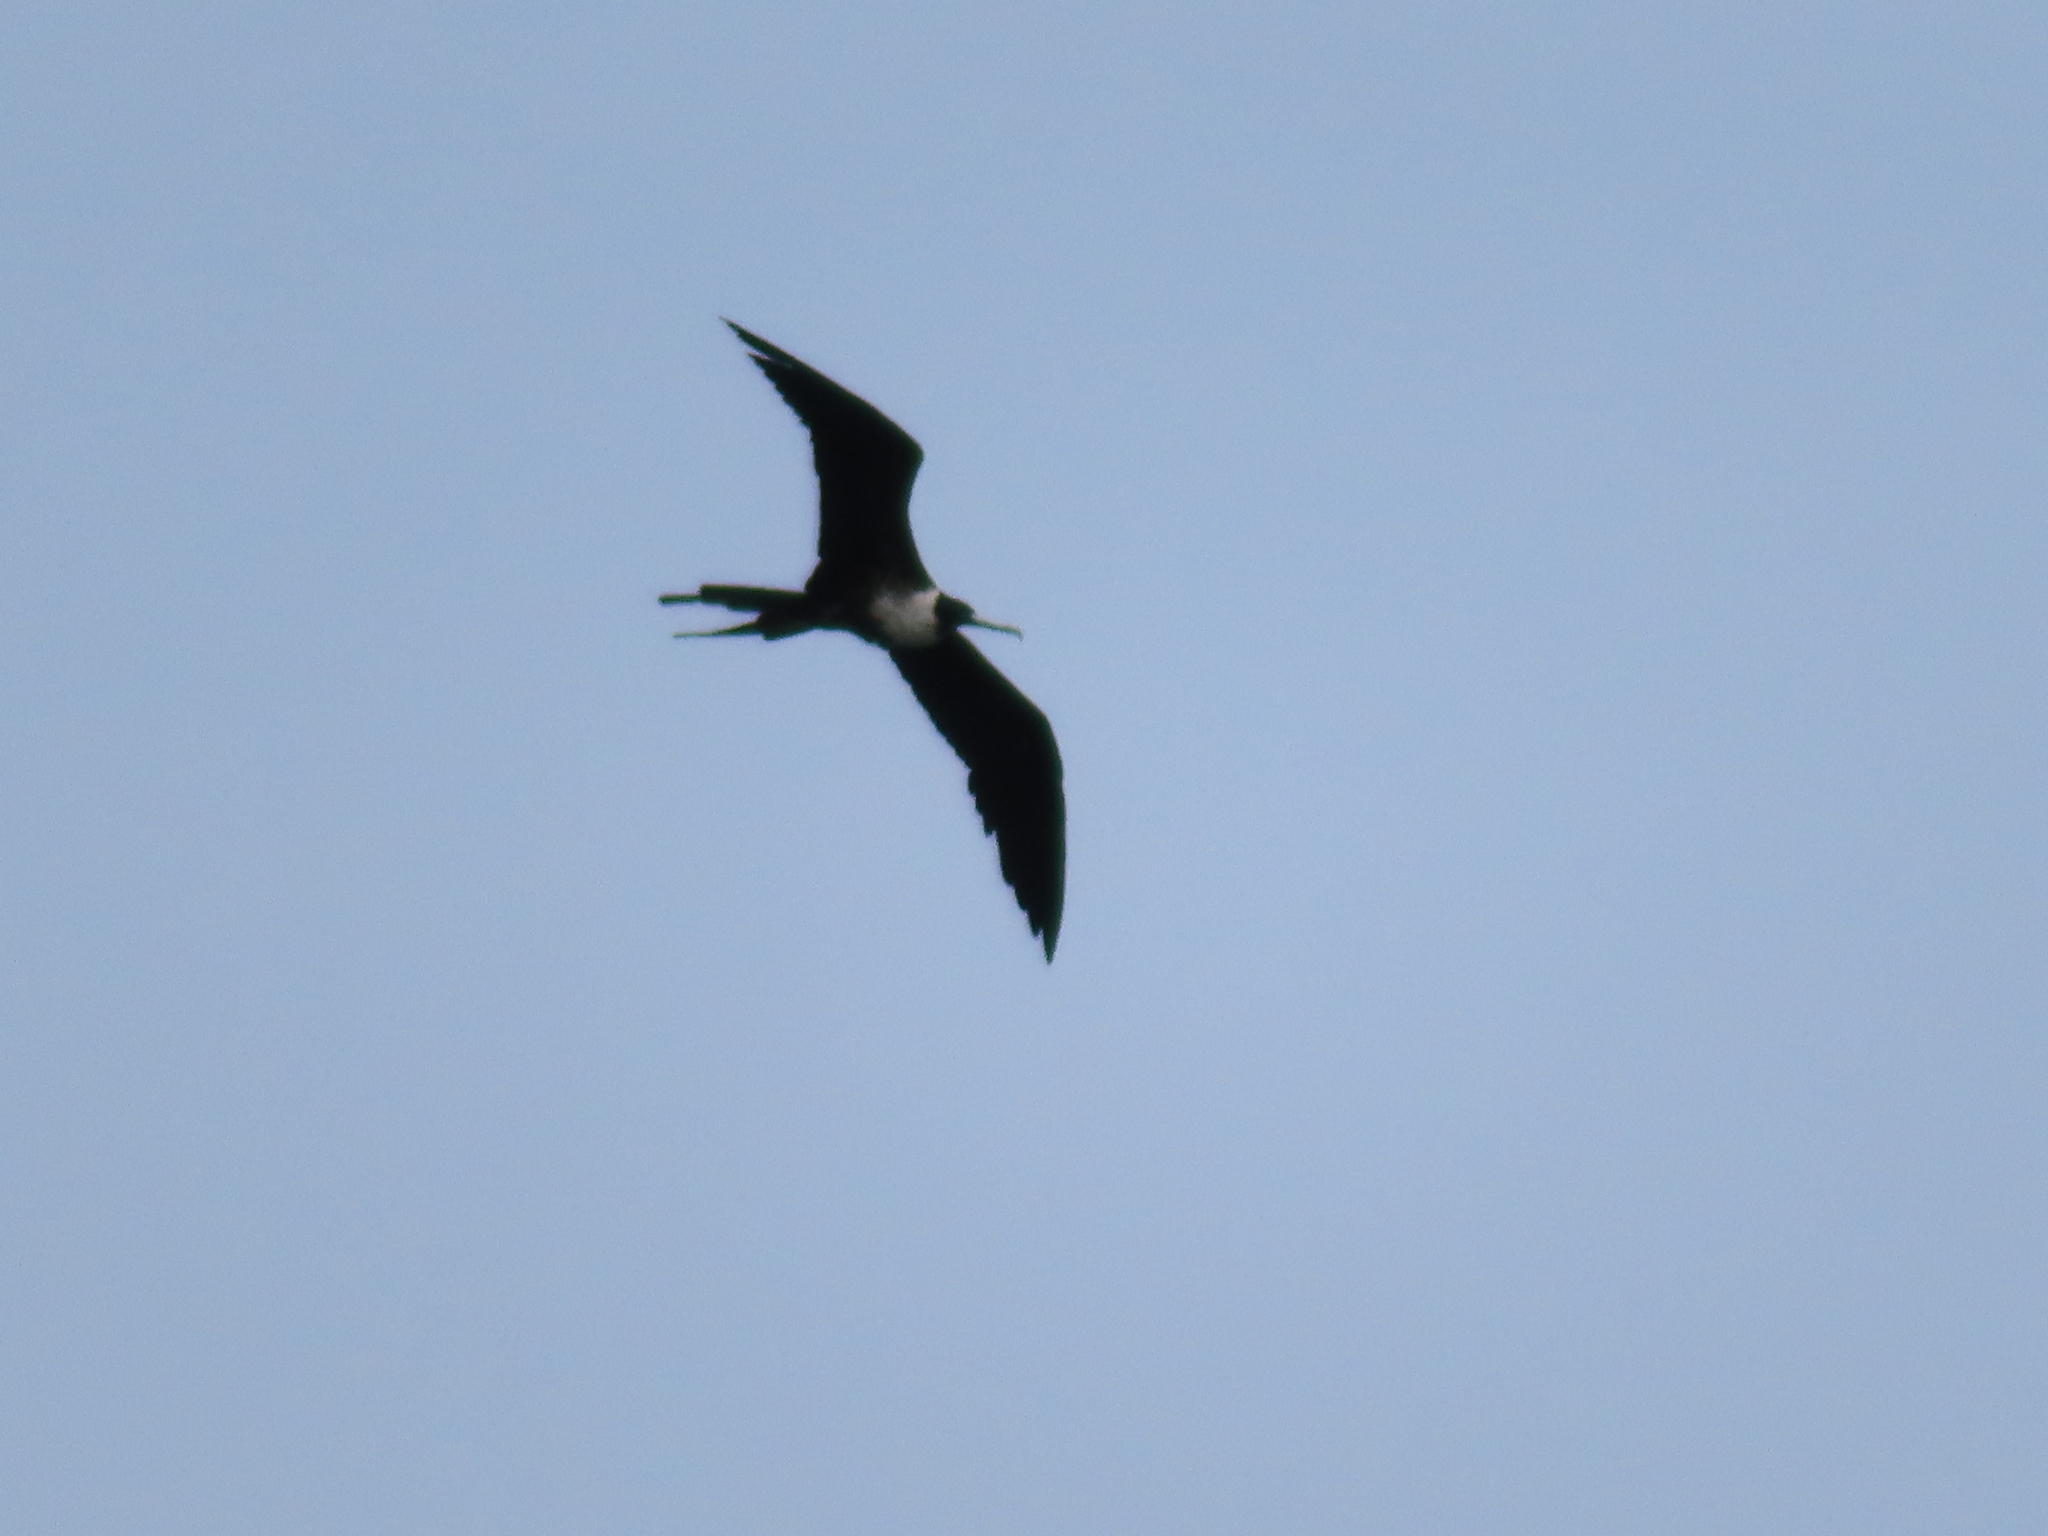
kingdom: Animalia
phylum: Chordata
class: Aves
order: Suliformes
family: Fregatidae
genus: Fregata
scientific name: Fregata magnificens
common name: Magnificent frigatebird
